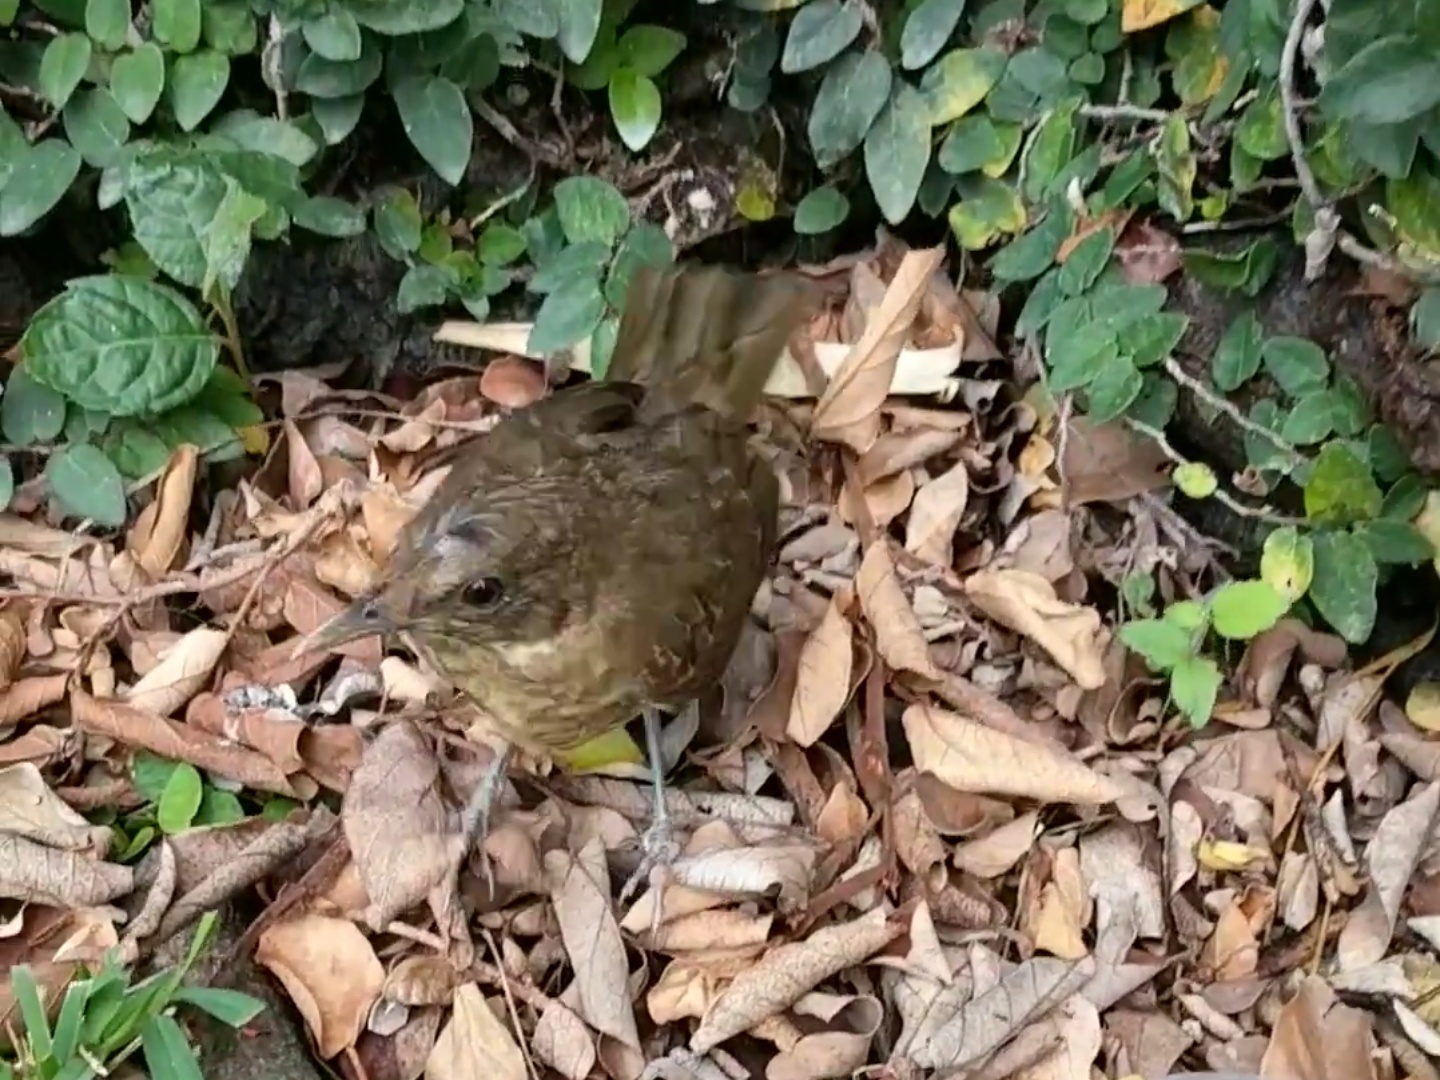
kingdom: Animalia
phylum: Chordata
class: Aves
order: Passeriformes
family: Turdidae
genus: Turdus
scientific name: Turdus grayi
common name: Clay-colored thrush
